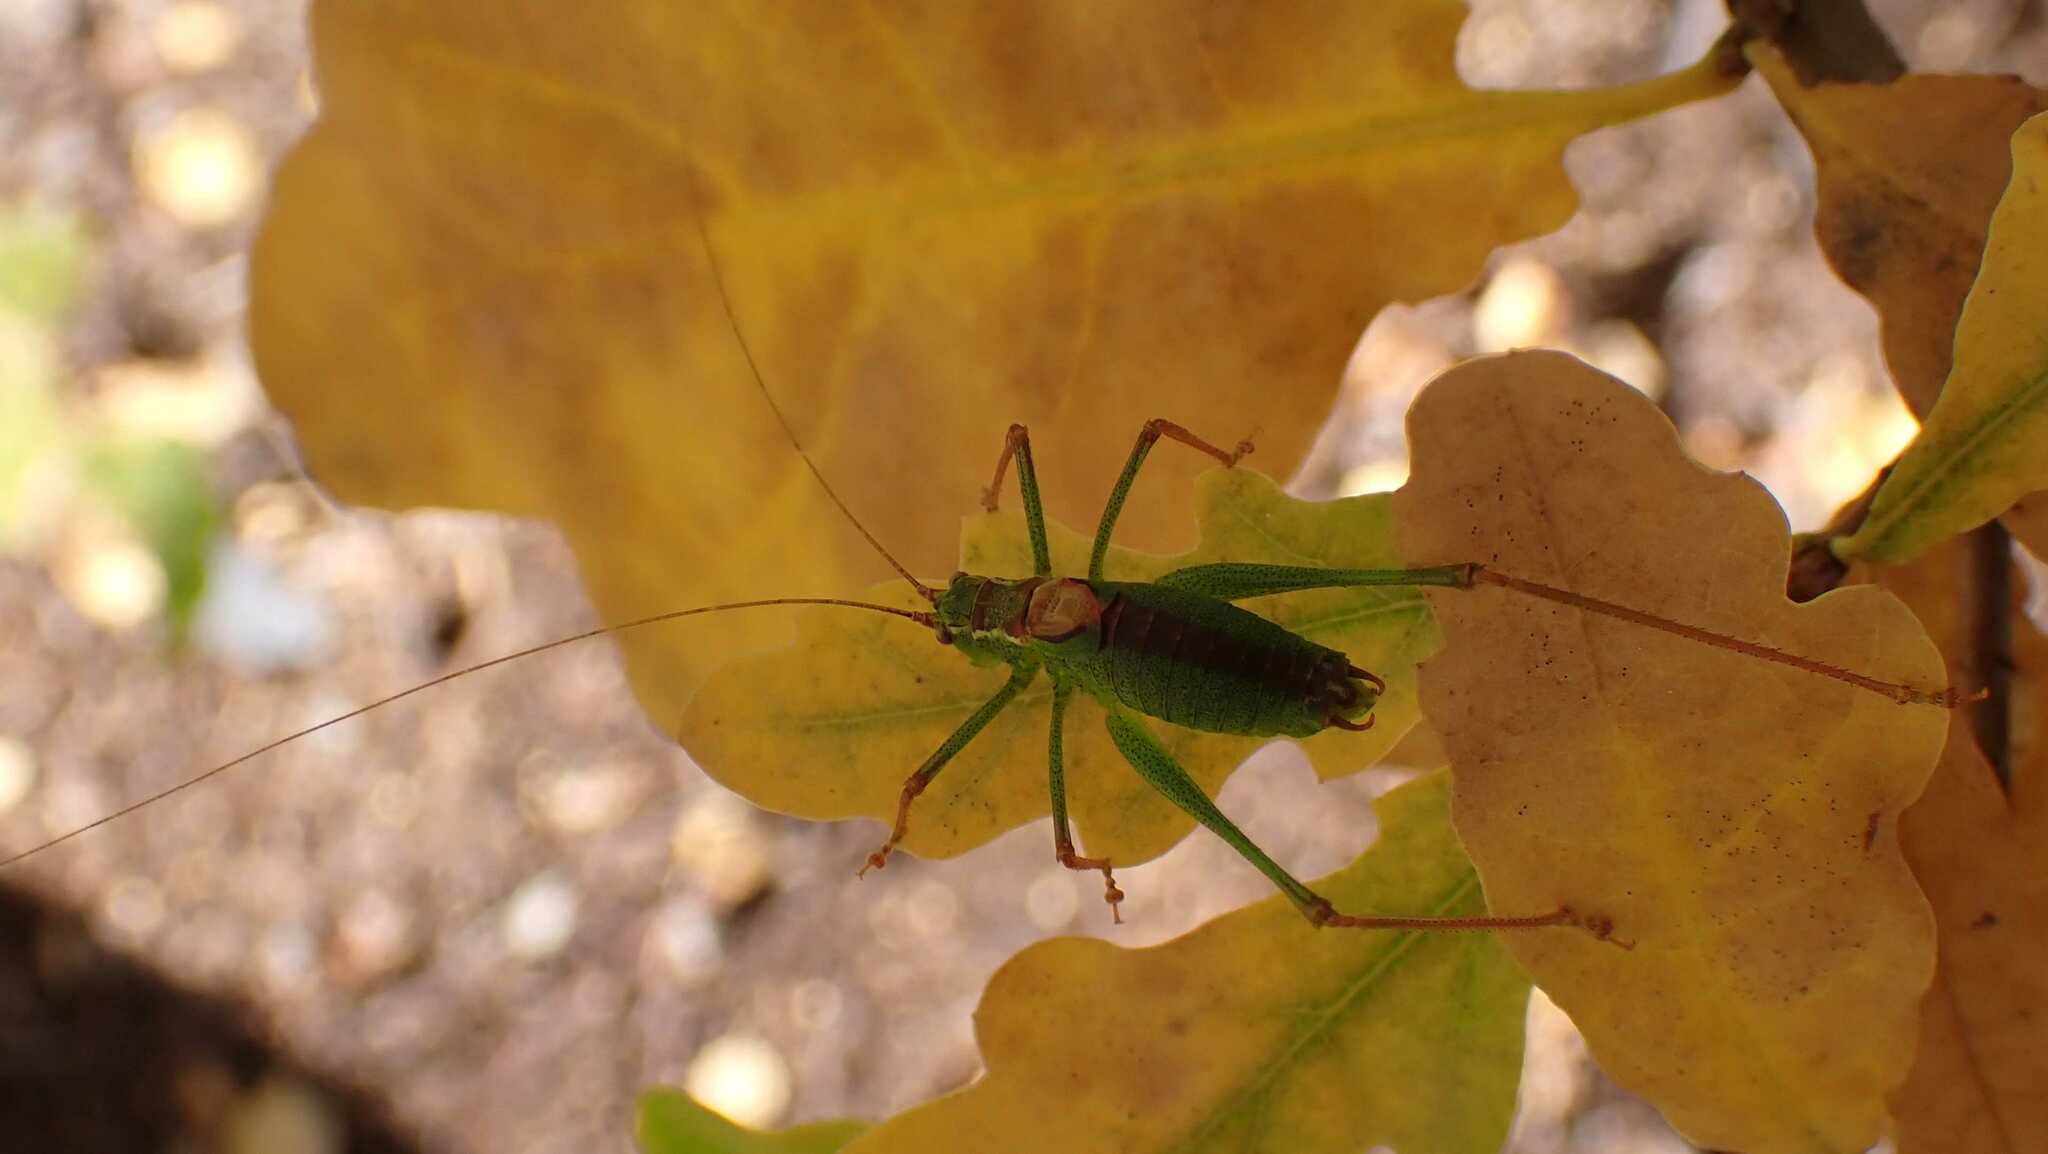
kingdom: Animalia
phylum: Arthropoda
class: Insecta
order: Orthoptera
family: Tettigoniidae
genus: Leptophyes
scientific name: Leptophyes punctatissima
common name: Speckled bush-cricket
